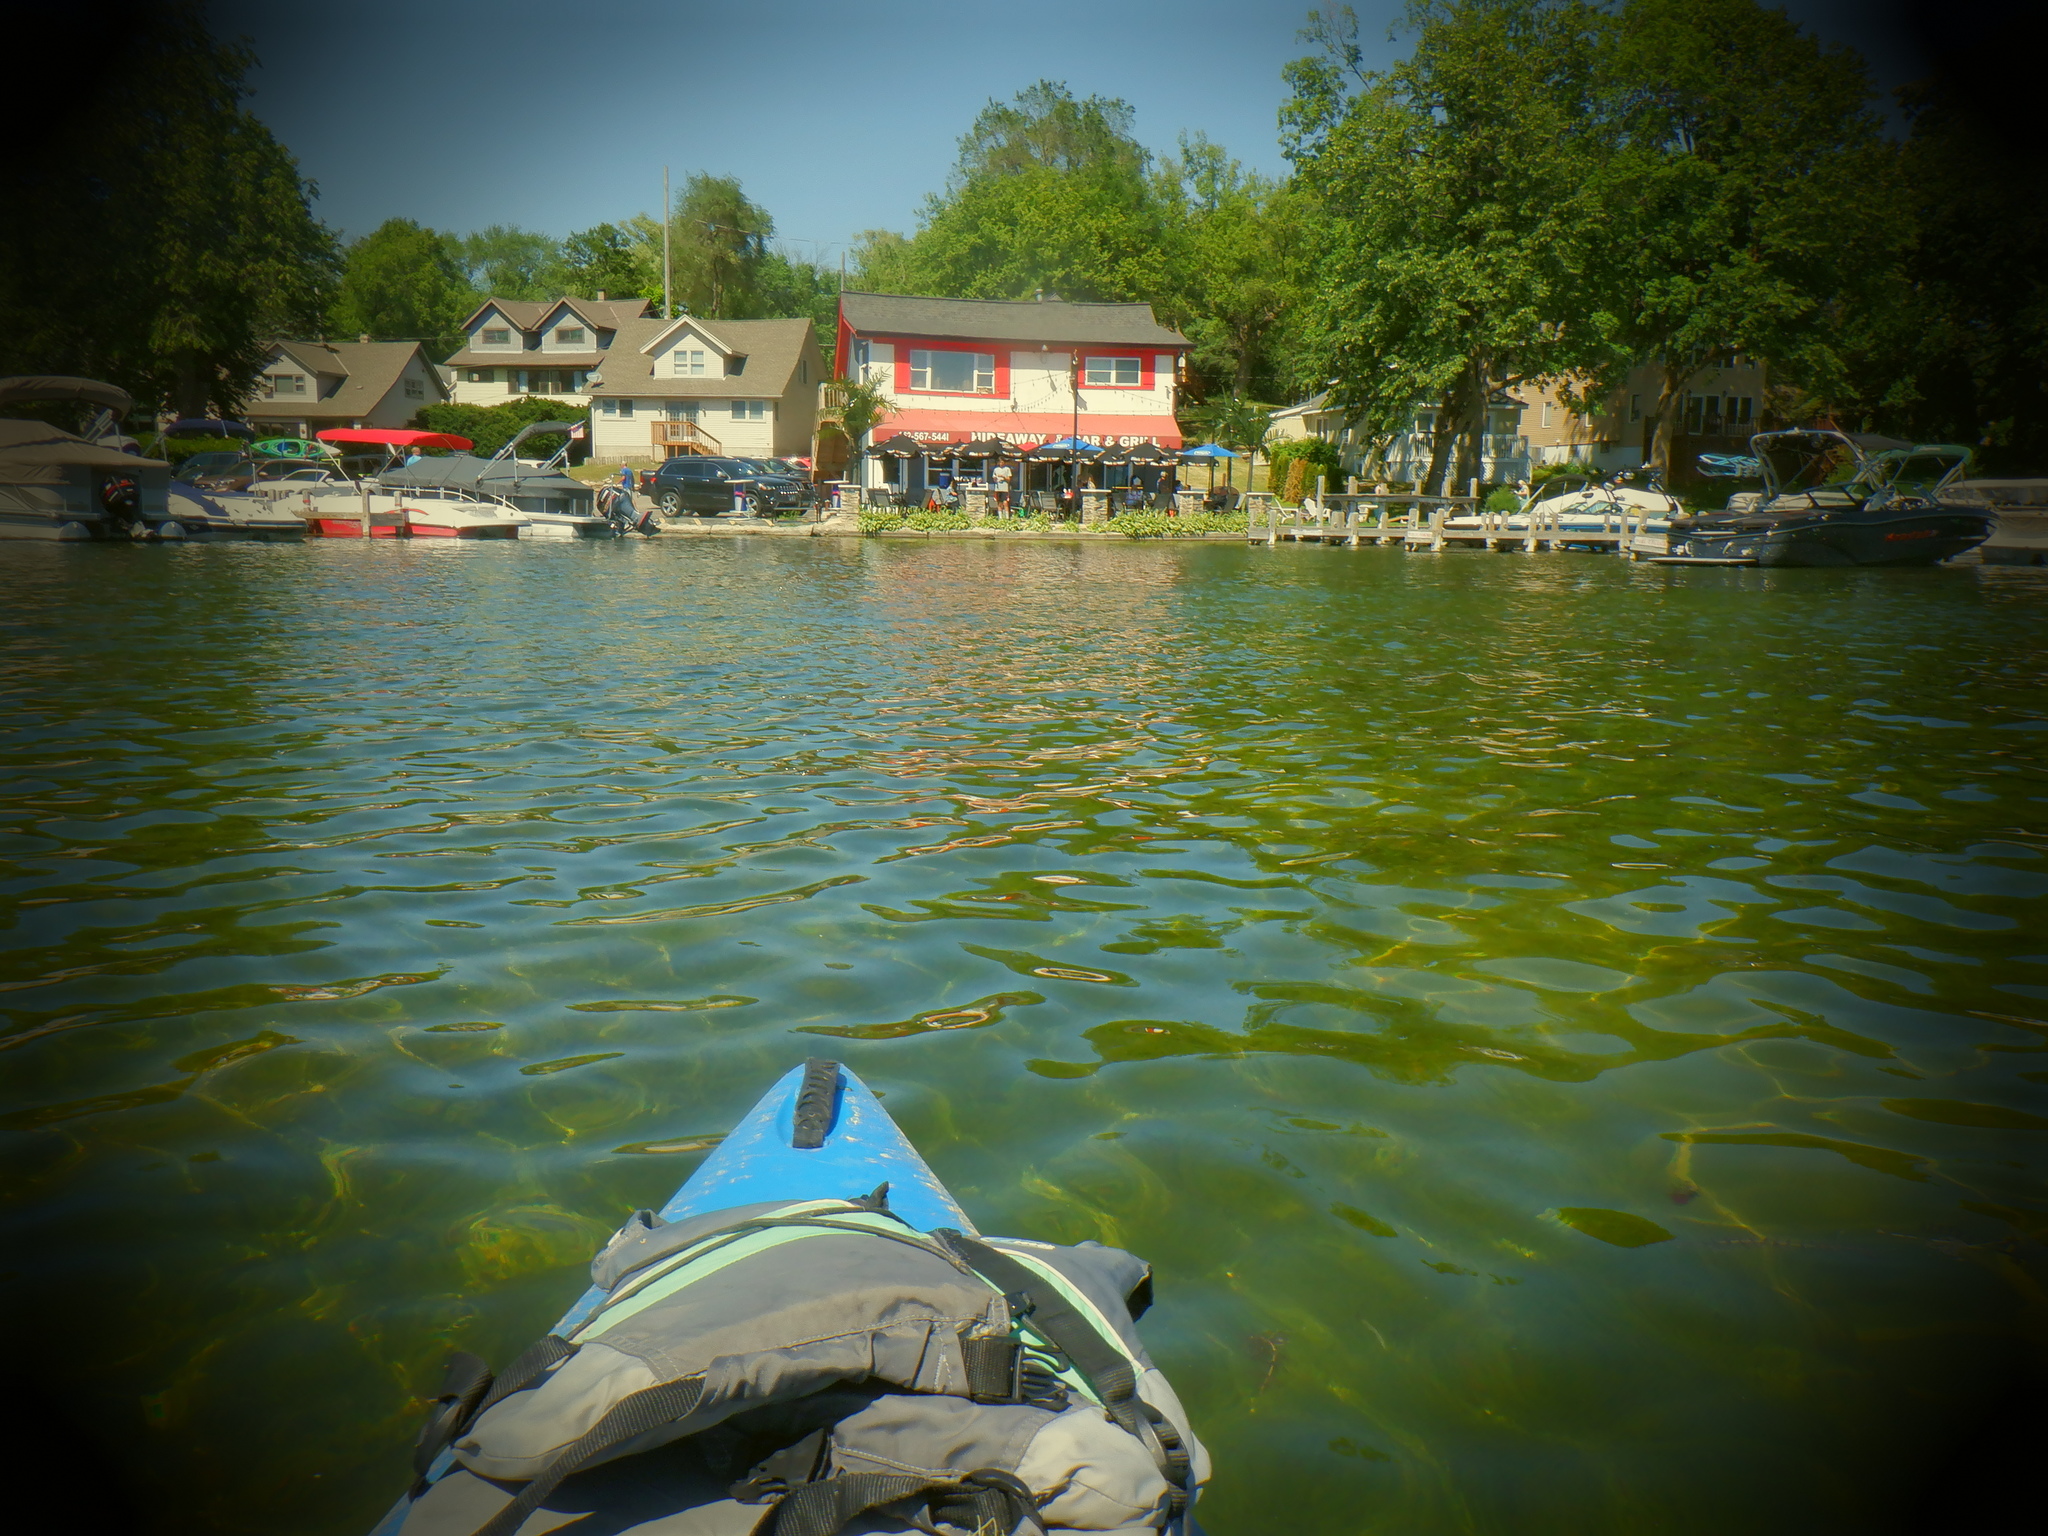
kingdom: Animalia
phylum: Chordata
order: Perciformes
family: Centrarchidae
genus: Lepomis
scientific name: Lepomis macrochirus
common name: Bluegill
